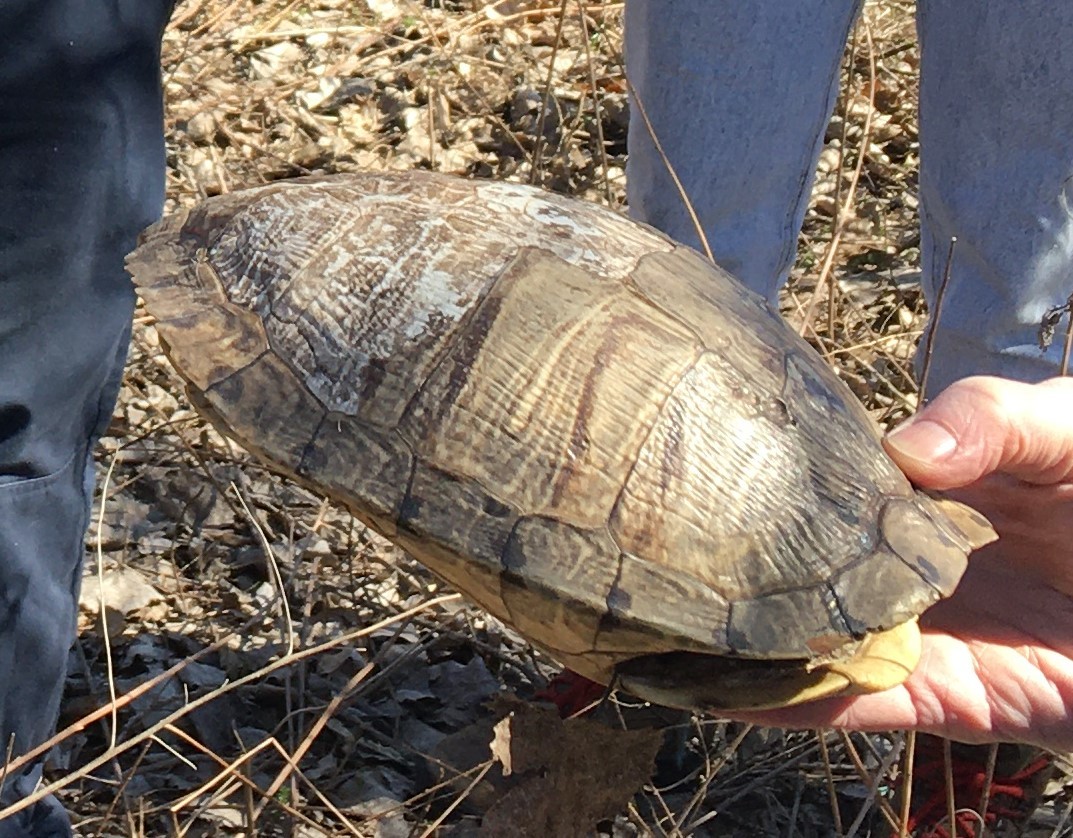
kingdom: Animalia
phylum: Chordata
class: Testudines
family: Emydidae
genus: Trachemys
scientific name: Trachemys scripta
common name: Slider
